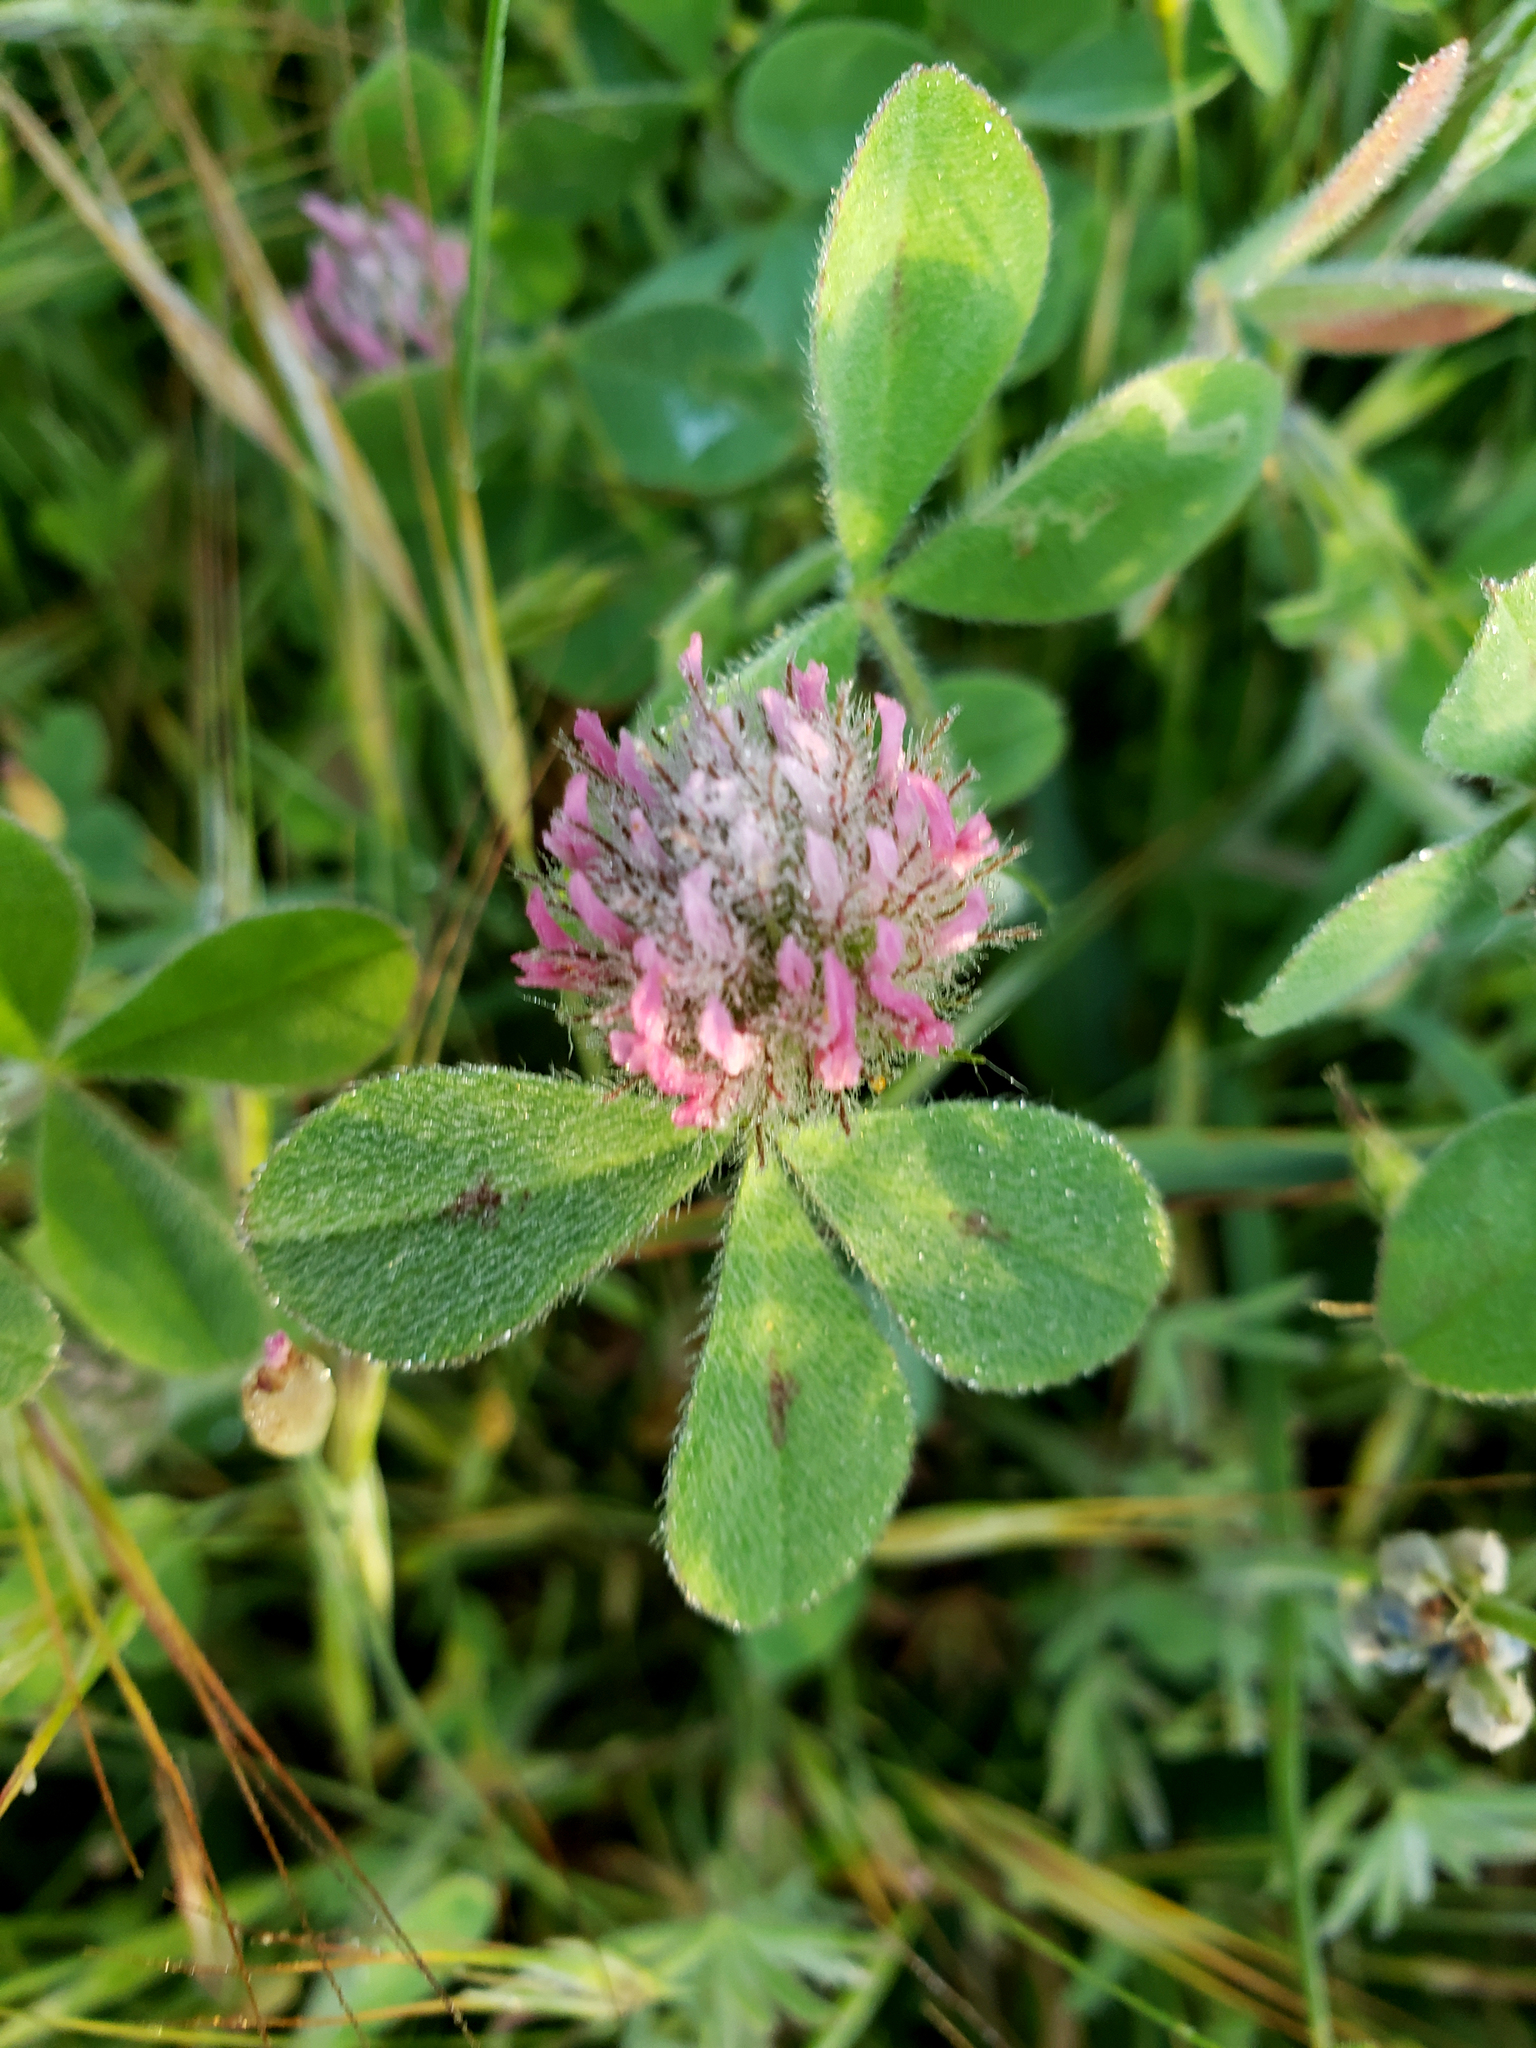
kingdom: Plantae
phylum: Tracheophyta
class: Magnoliopsida
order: Fabales
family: Fabaceae
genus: Trifolium
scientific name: Trifolium hirtum
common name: Rose clover
